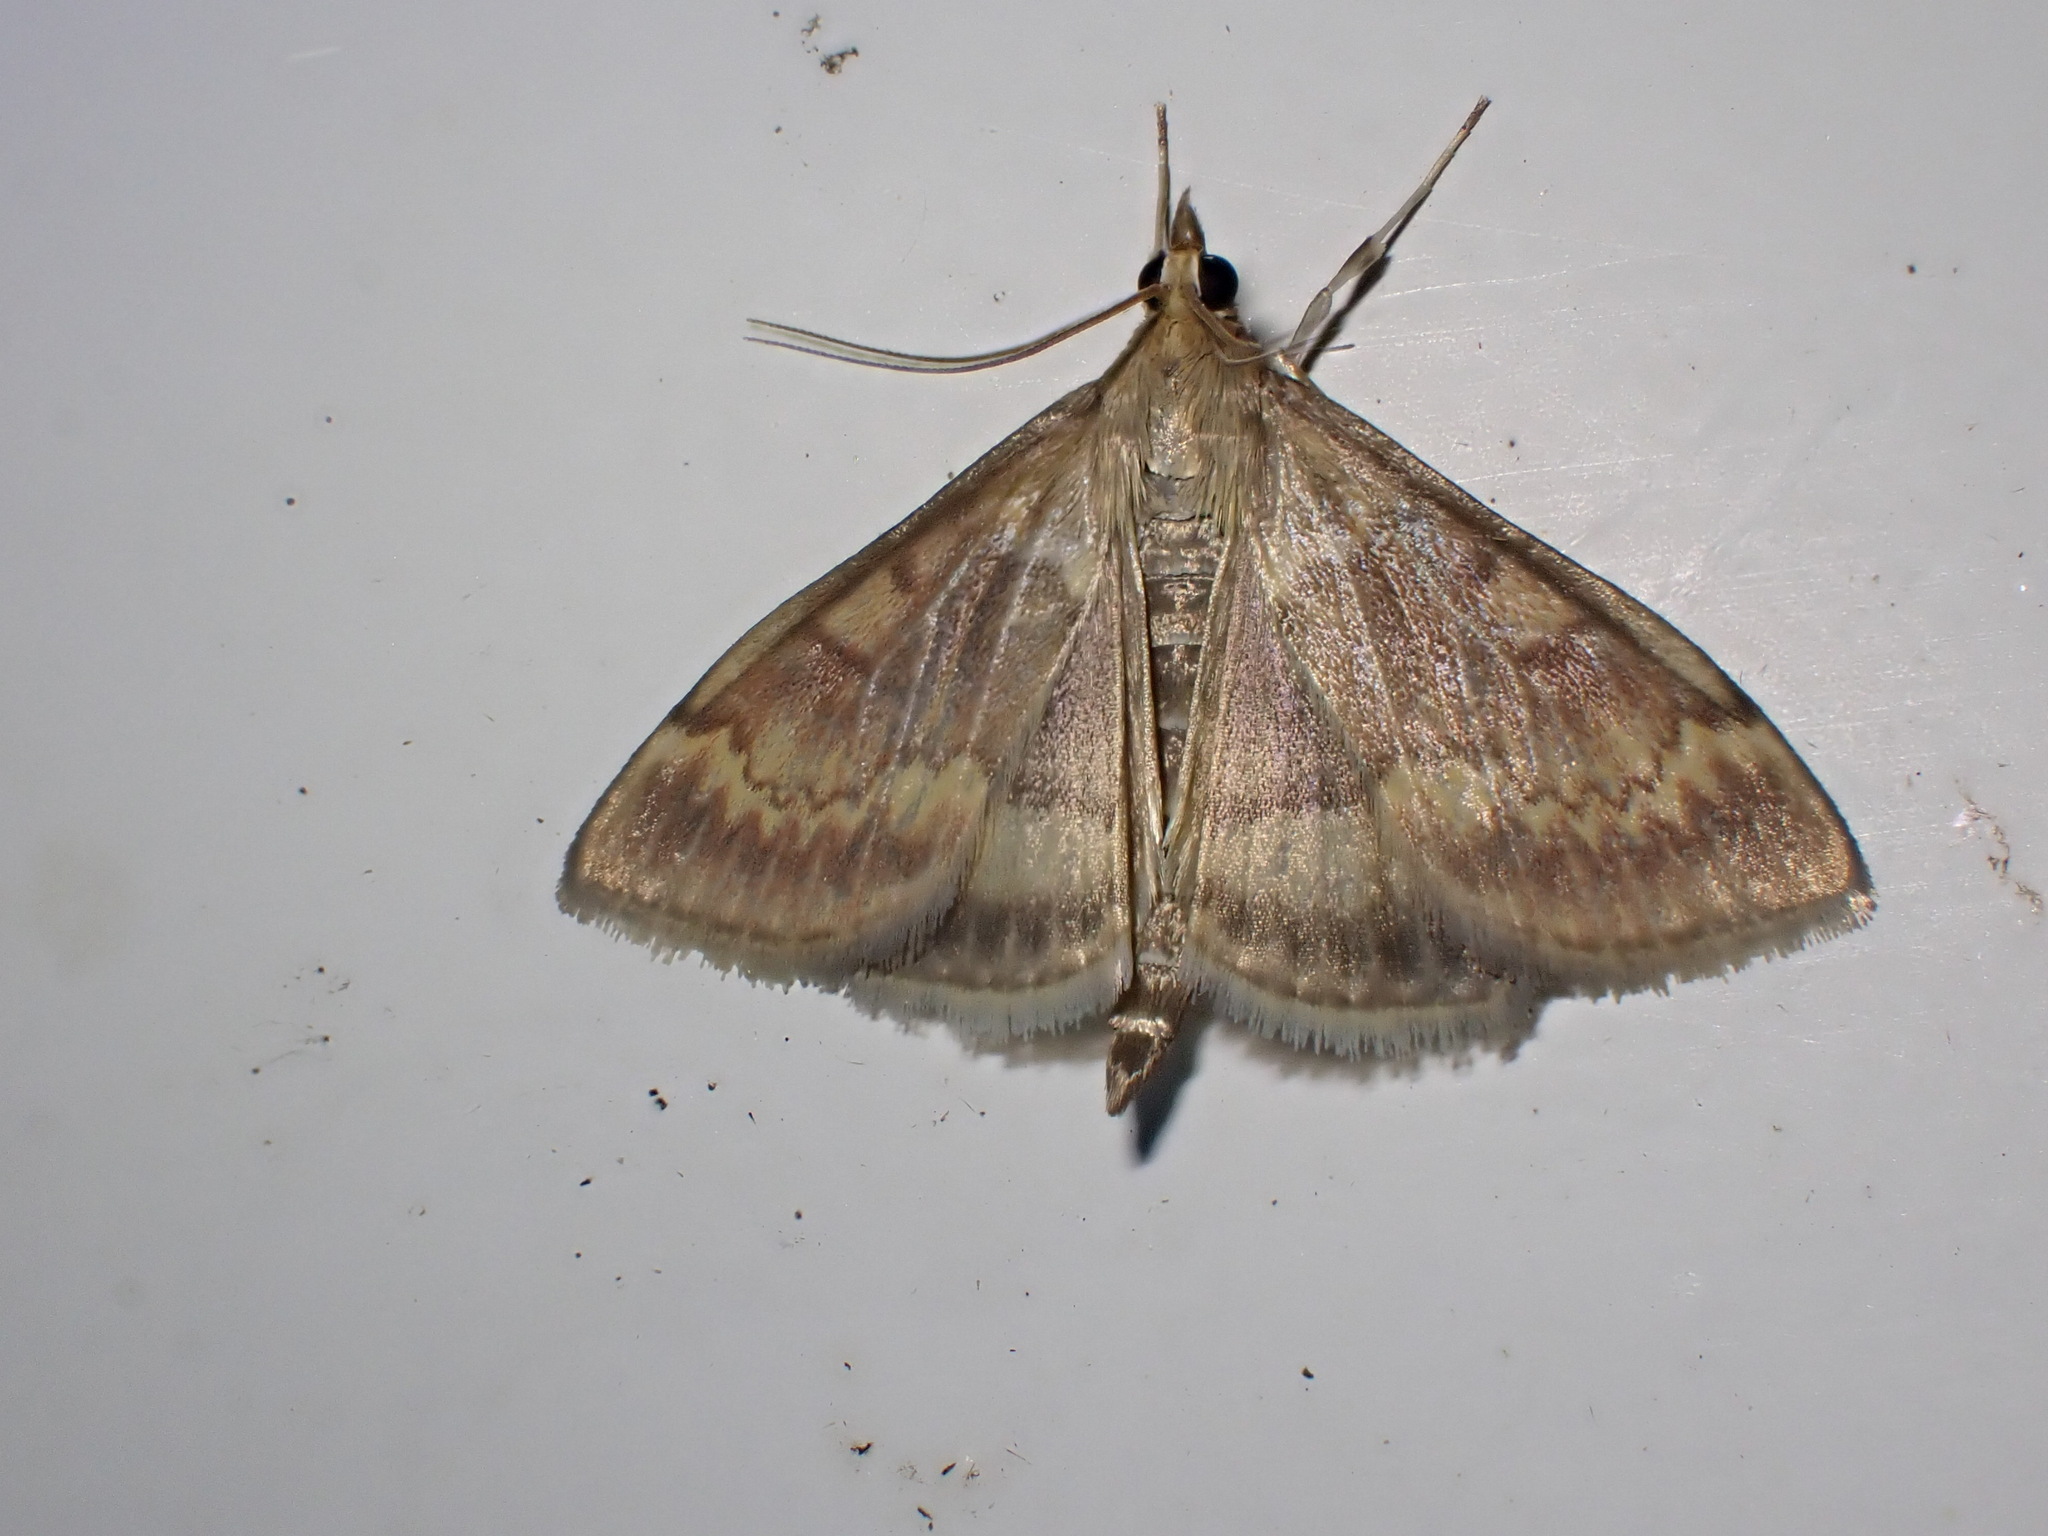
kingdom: Animalia
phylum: Arthropoda
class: Insecta
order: Lepidoptera
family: Crambidae
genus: Ostrinia
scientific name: Ostrinia nubilalis
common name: European corn borer
